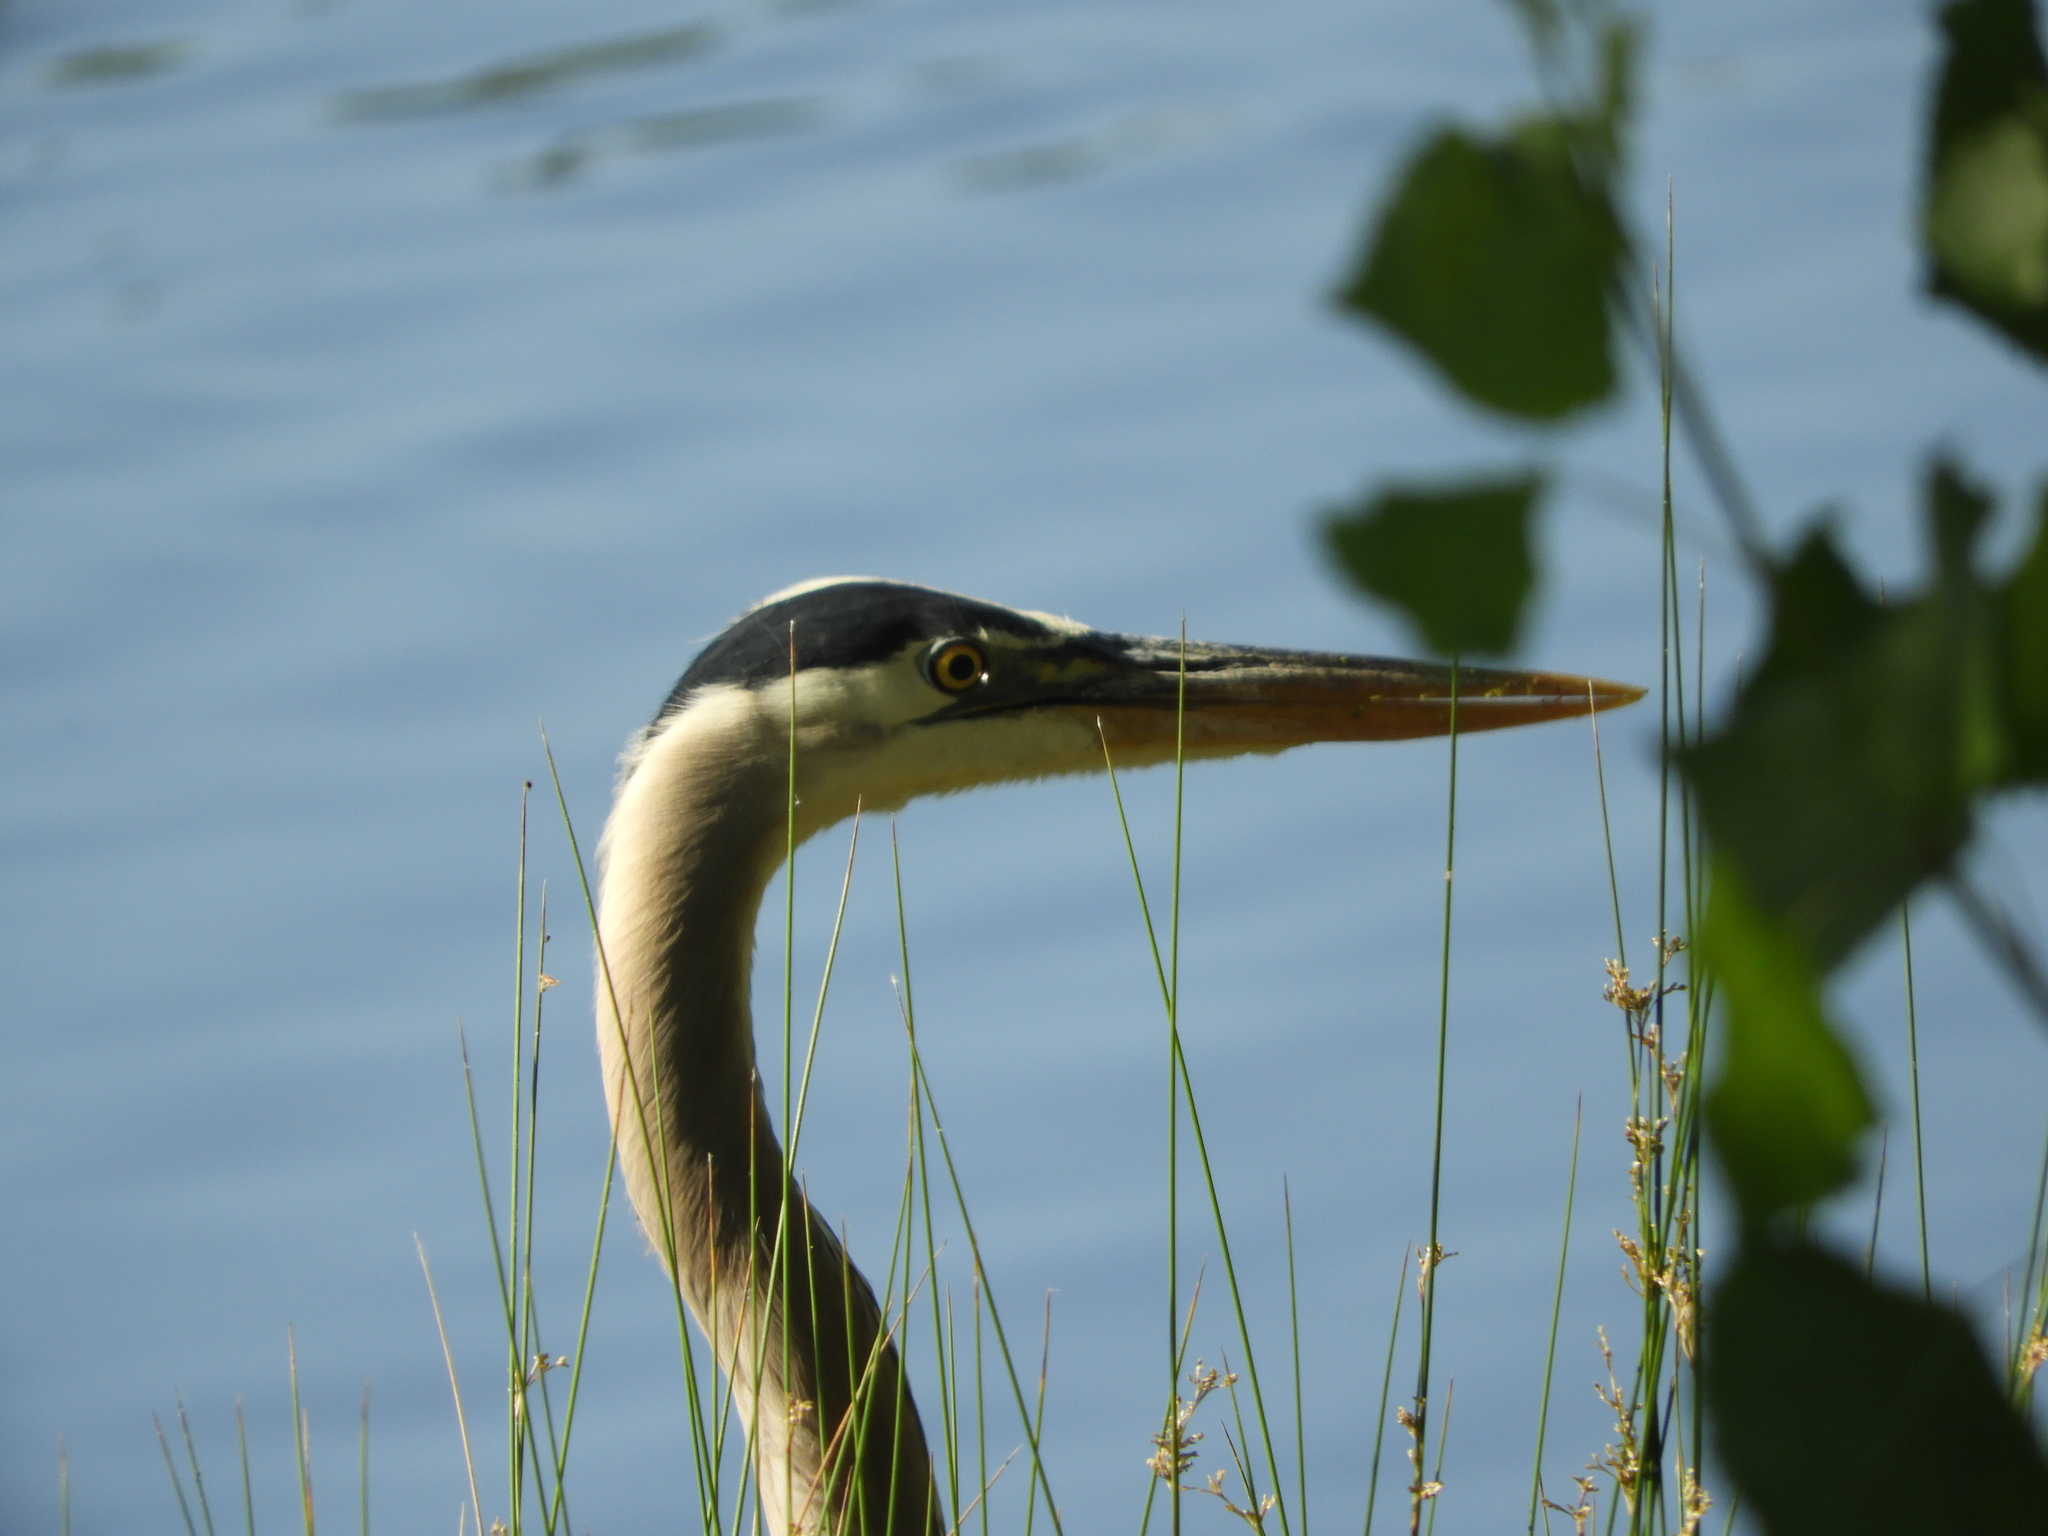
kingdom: Animalia
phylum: Chordata
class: Aves
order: Pelecaniformes
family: Ardeidae
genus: Ardea
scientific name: Ardea herodias
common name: Great blue heron
